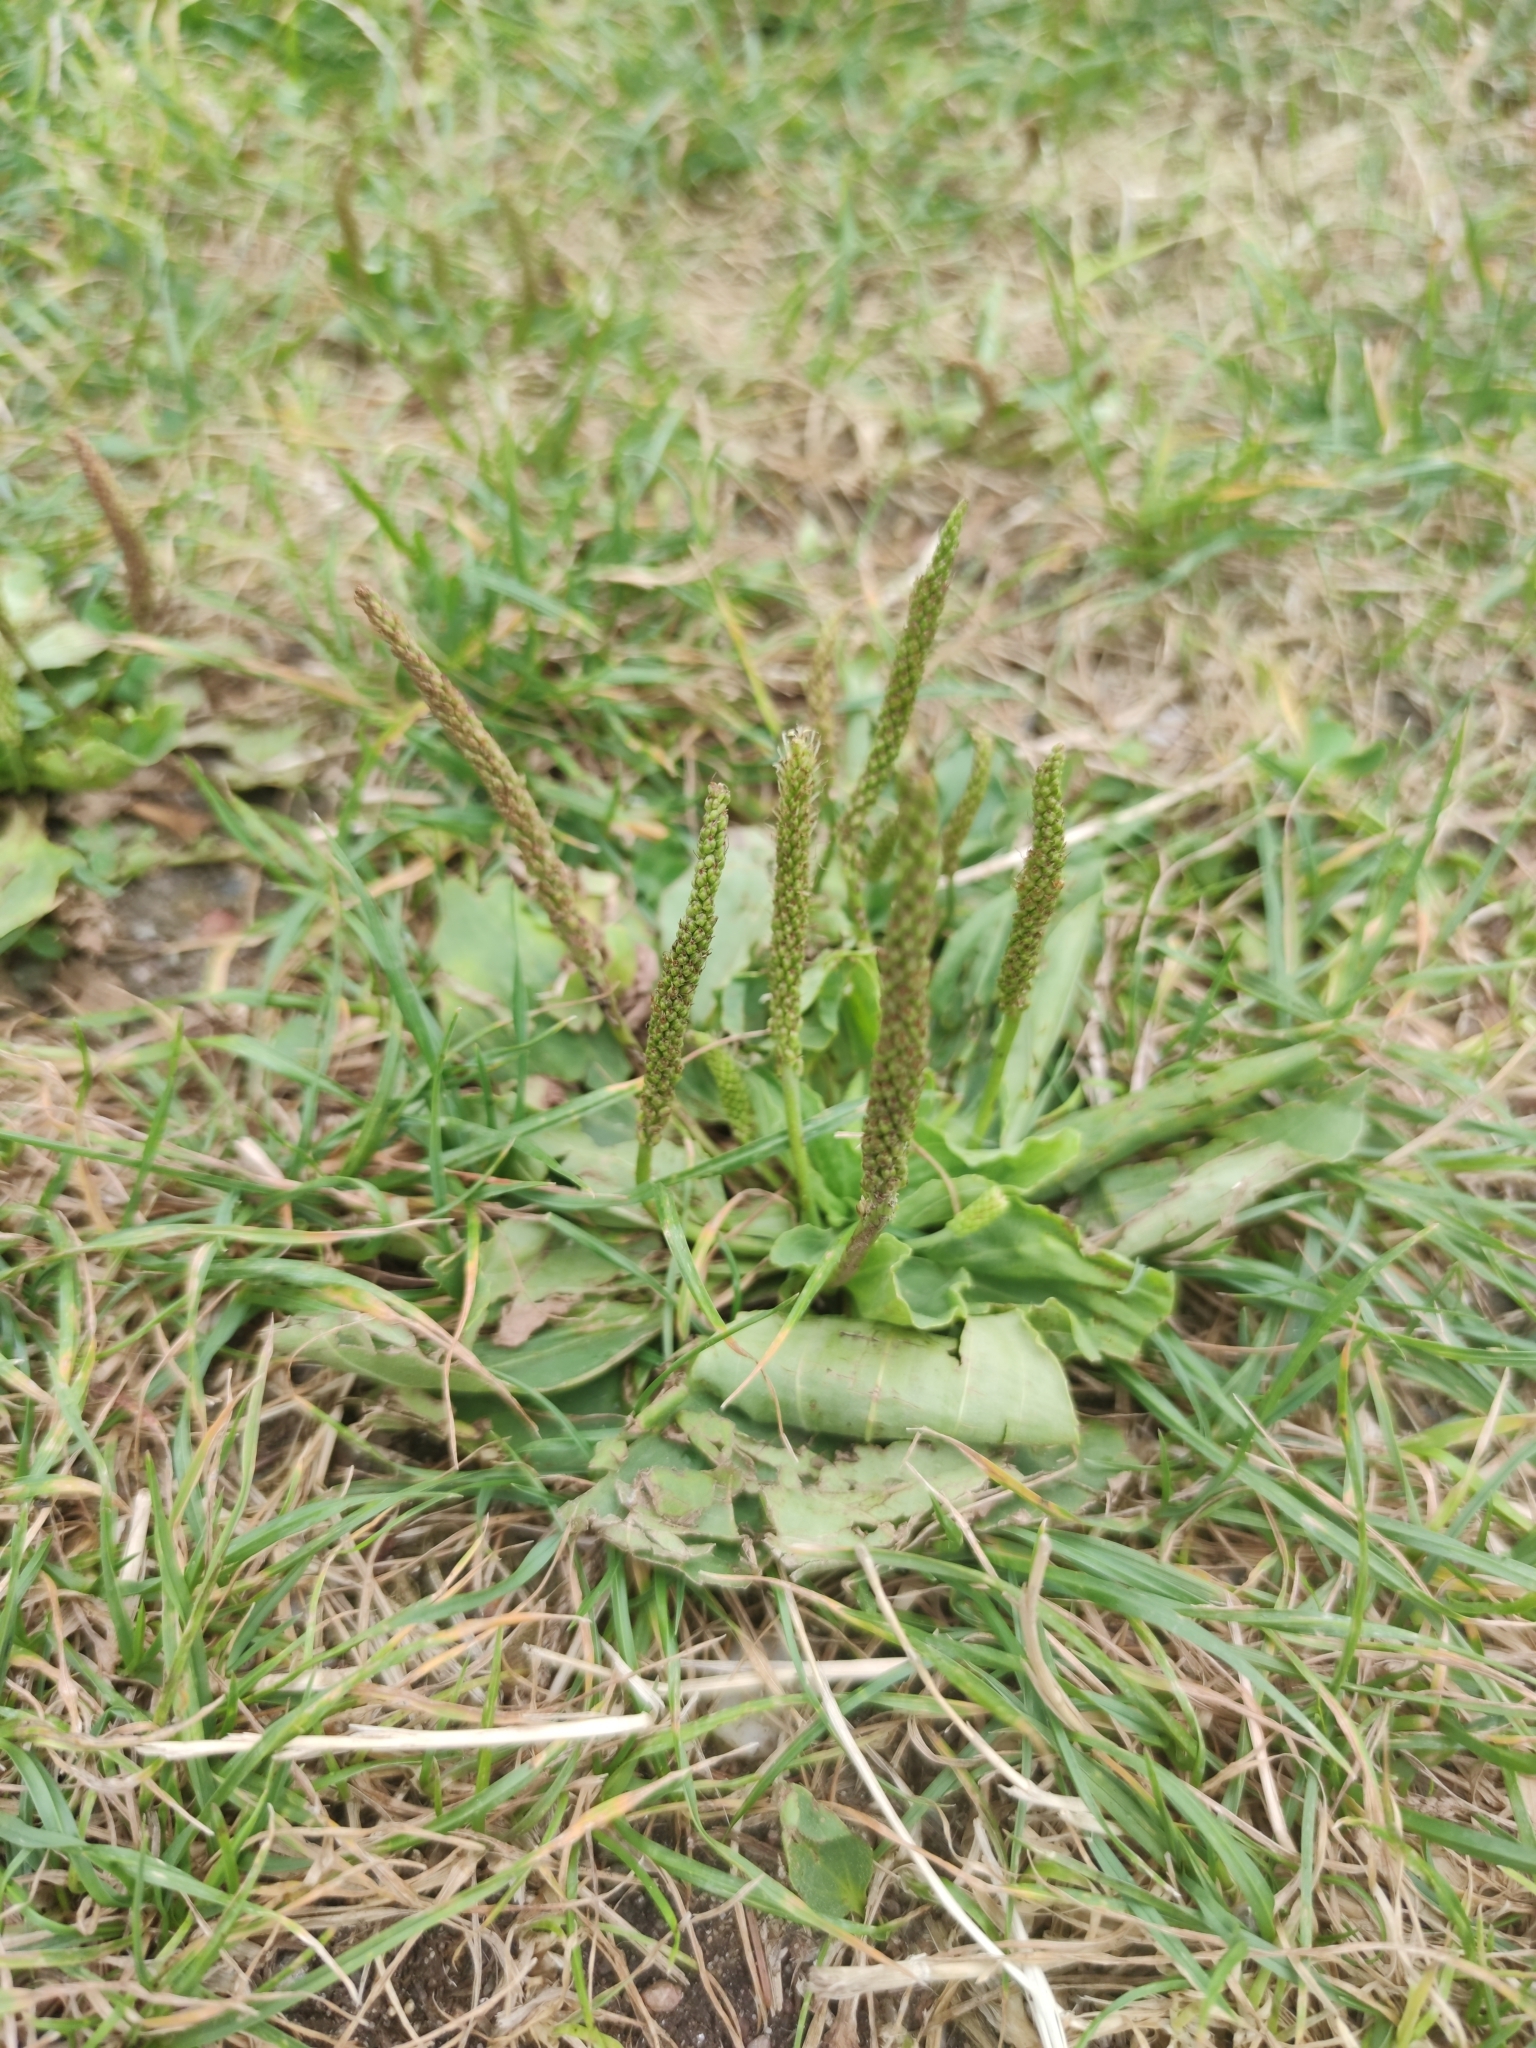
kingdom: Plantae
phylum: Tracheophyta
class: Magnoliopsida
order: Lamiales
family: Plantaginaceae
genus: Plantago
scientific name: Plantago major
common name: Common plantain
